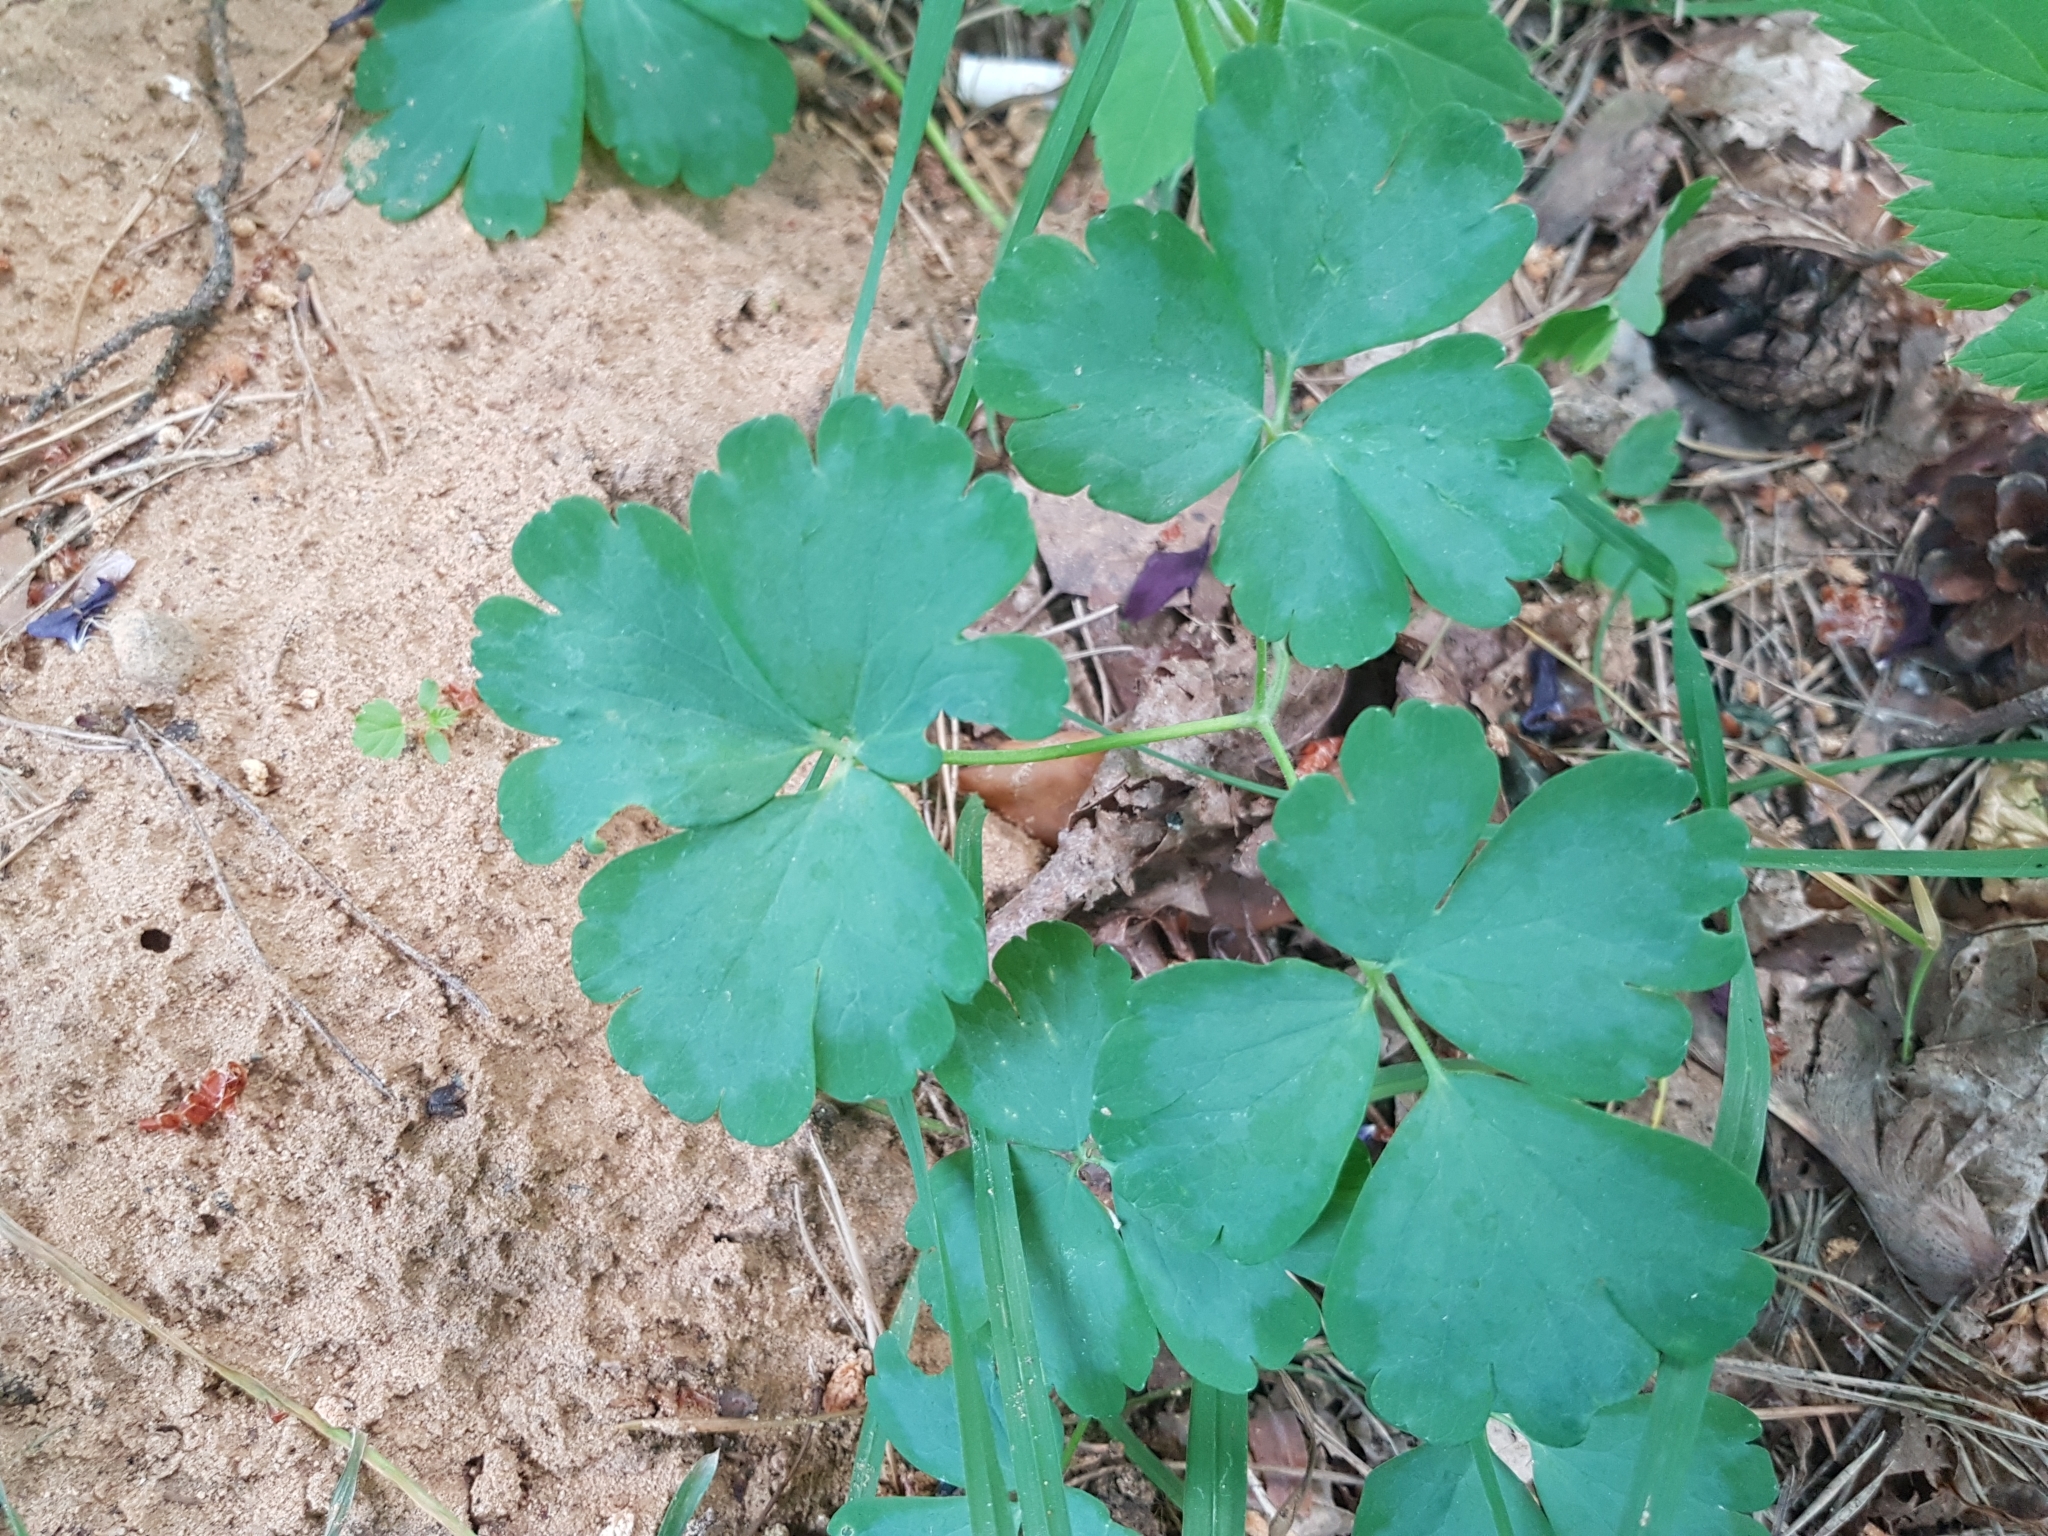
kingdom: Plantae
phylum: Tracheophyta
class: Magnoliopsida
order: Ranunculales
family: Ranunculaceae
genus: Aquilegia
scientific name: Aquilegia vulgaris
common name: Columbine
